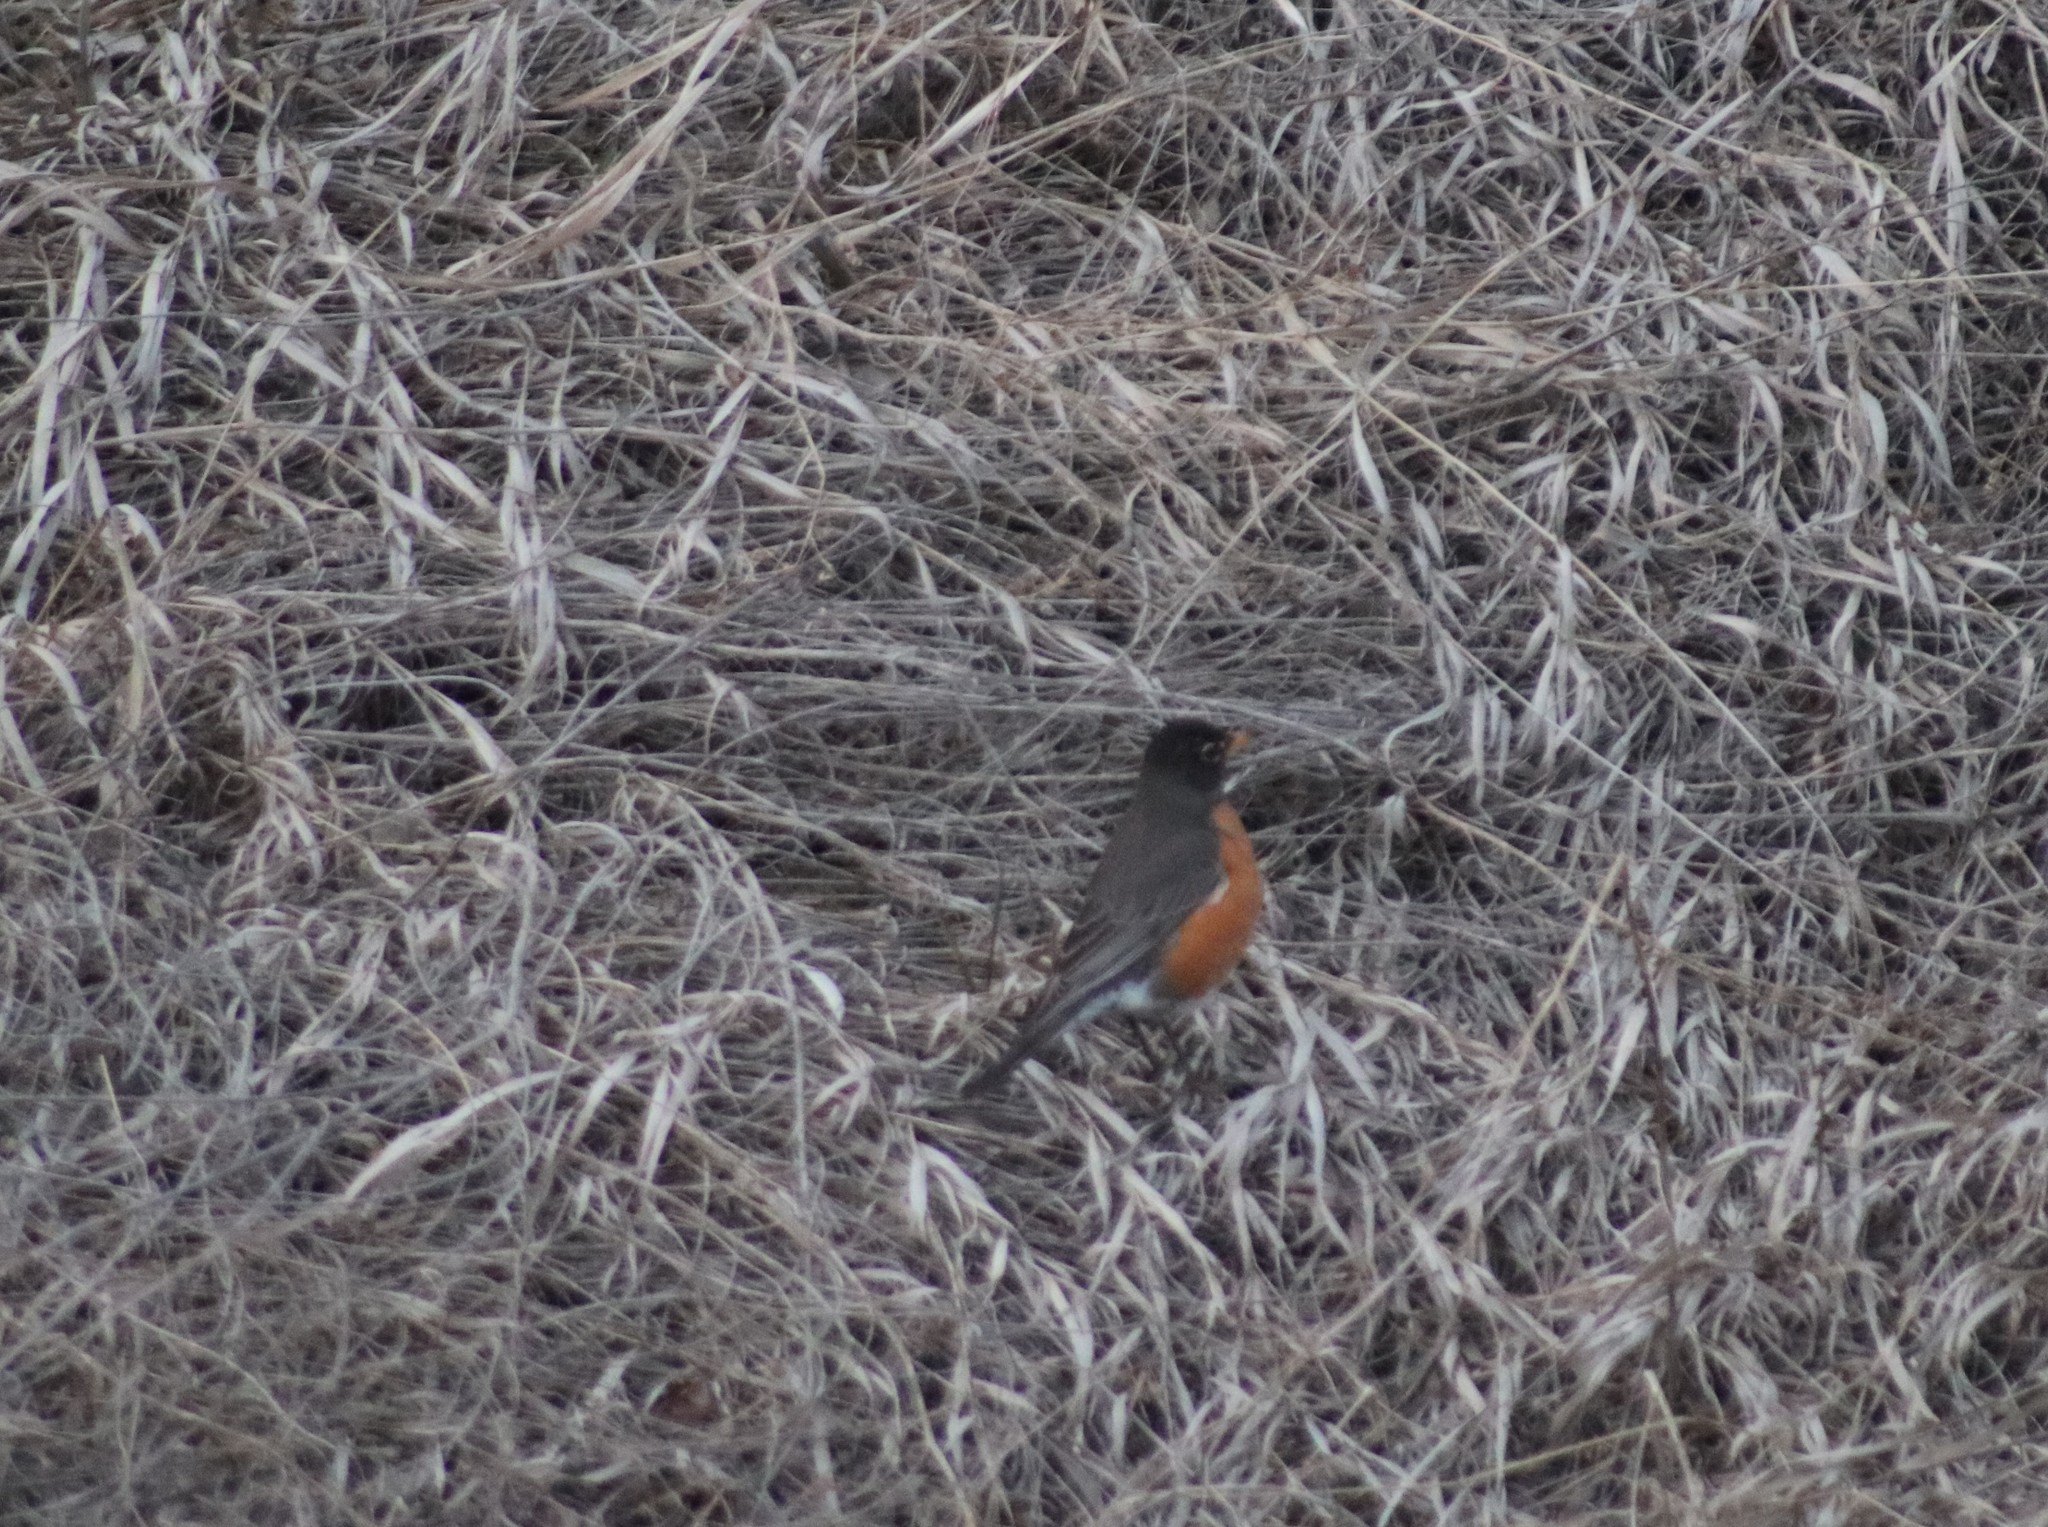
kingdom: Animalia
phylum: Chordata
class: Aves
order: Passeriformes
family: Turdidae
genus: Turdus
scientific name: Turdus migratorius
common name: American robin
